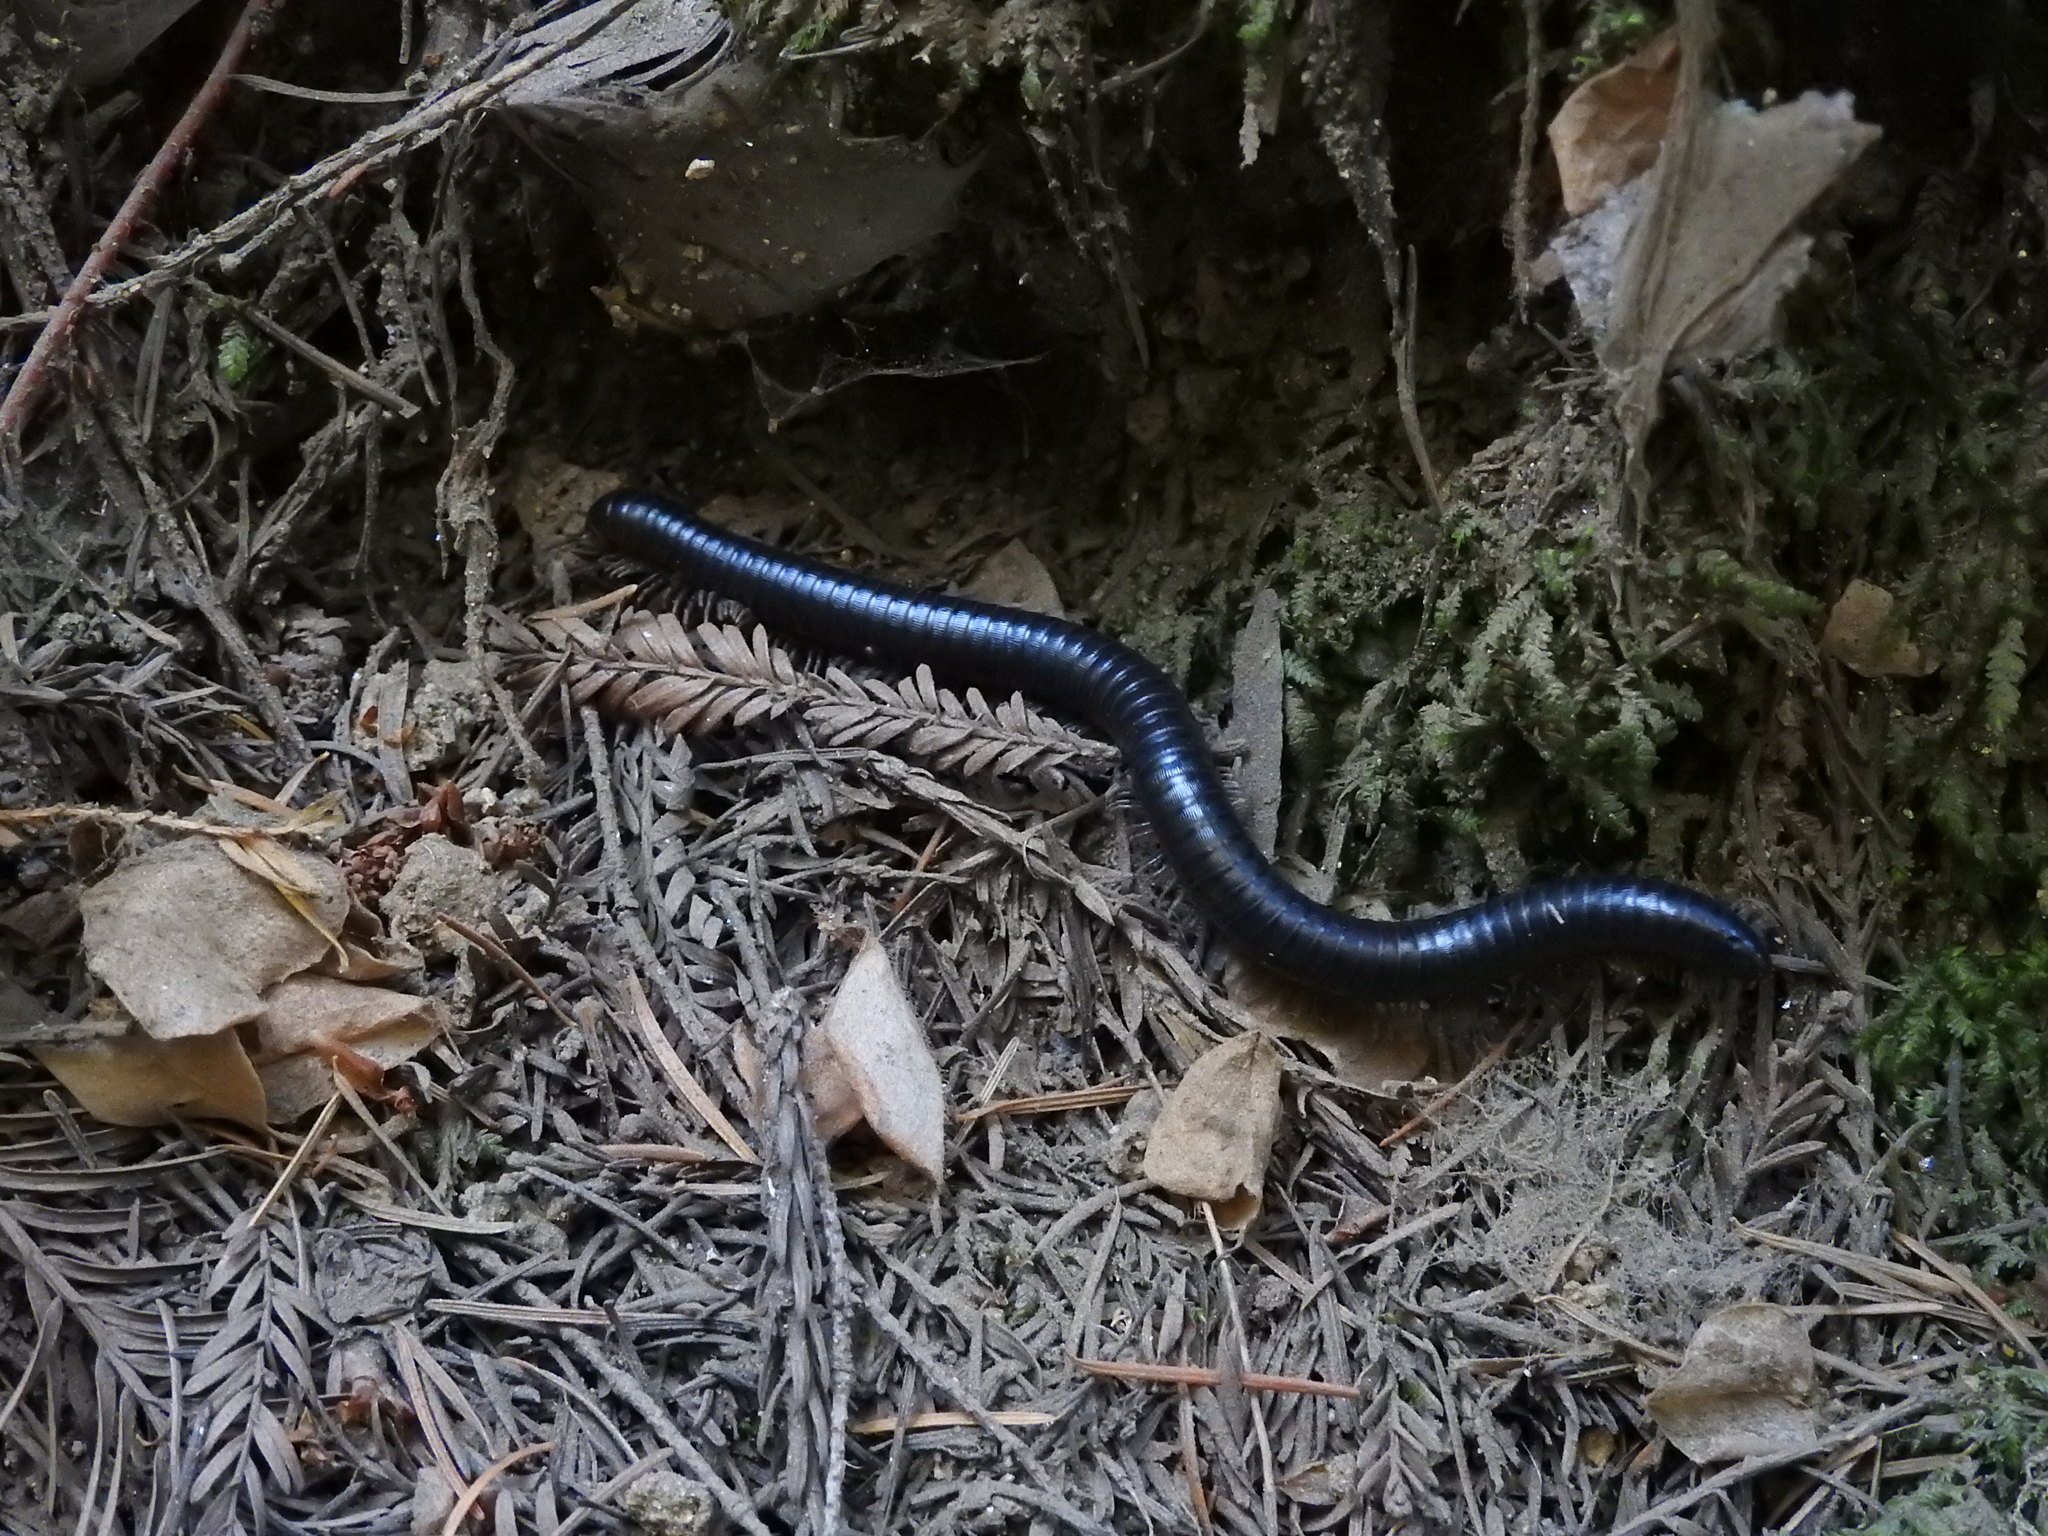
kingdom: Animalia
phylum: Arthropoda
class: Diplopoda
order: Julida
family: Paeromopodidae
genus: Paeromopus
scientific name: Paeromopus angusticeps
